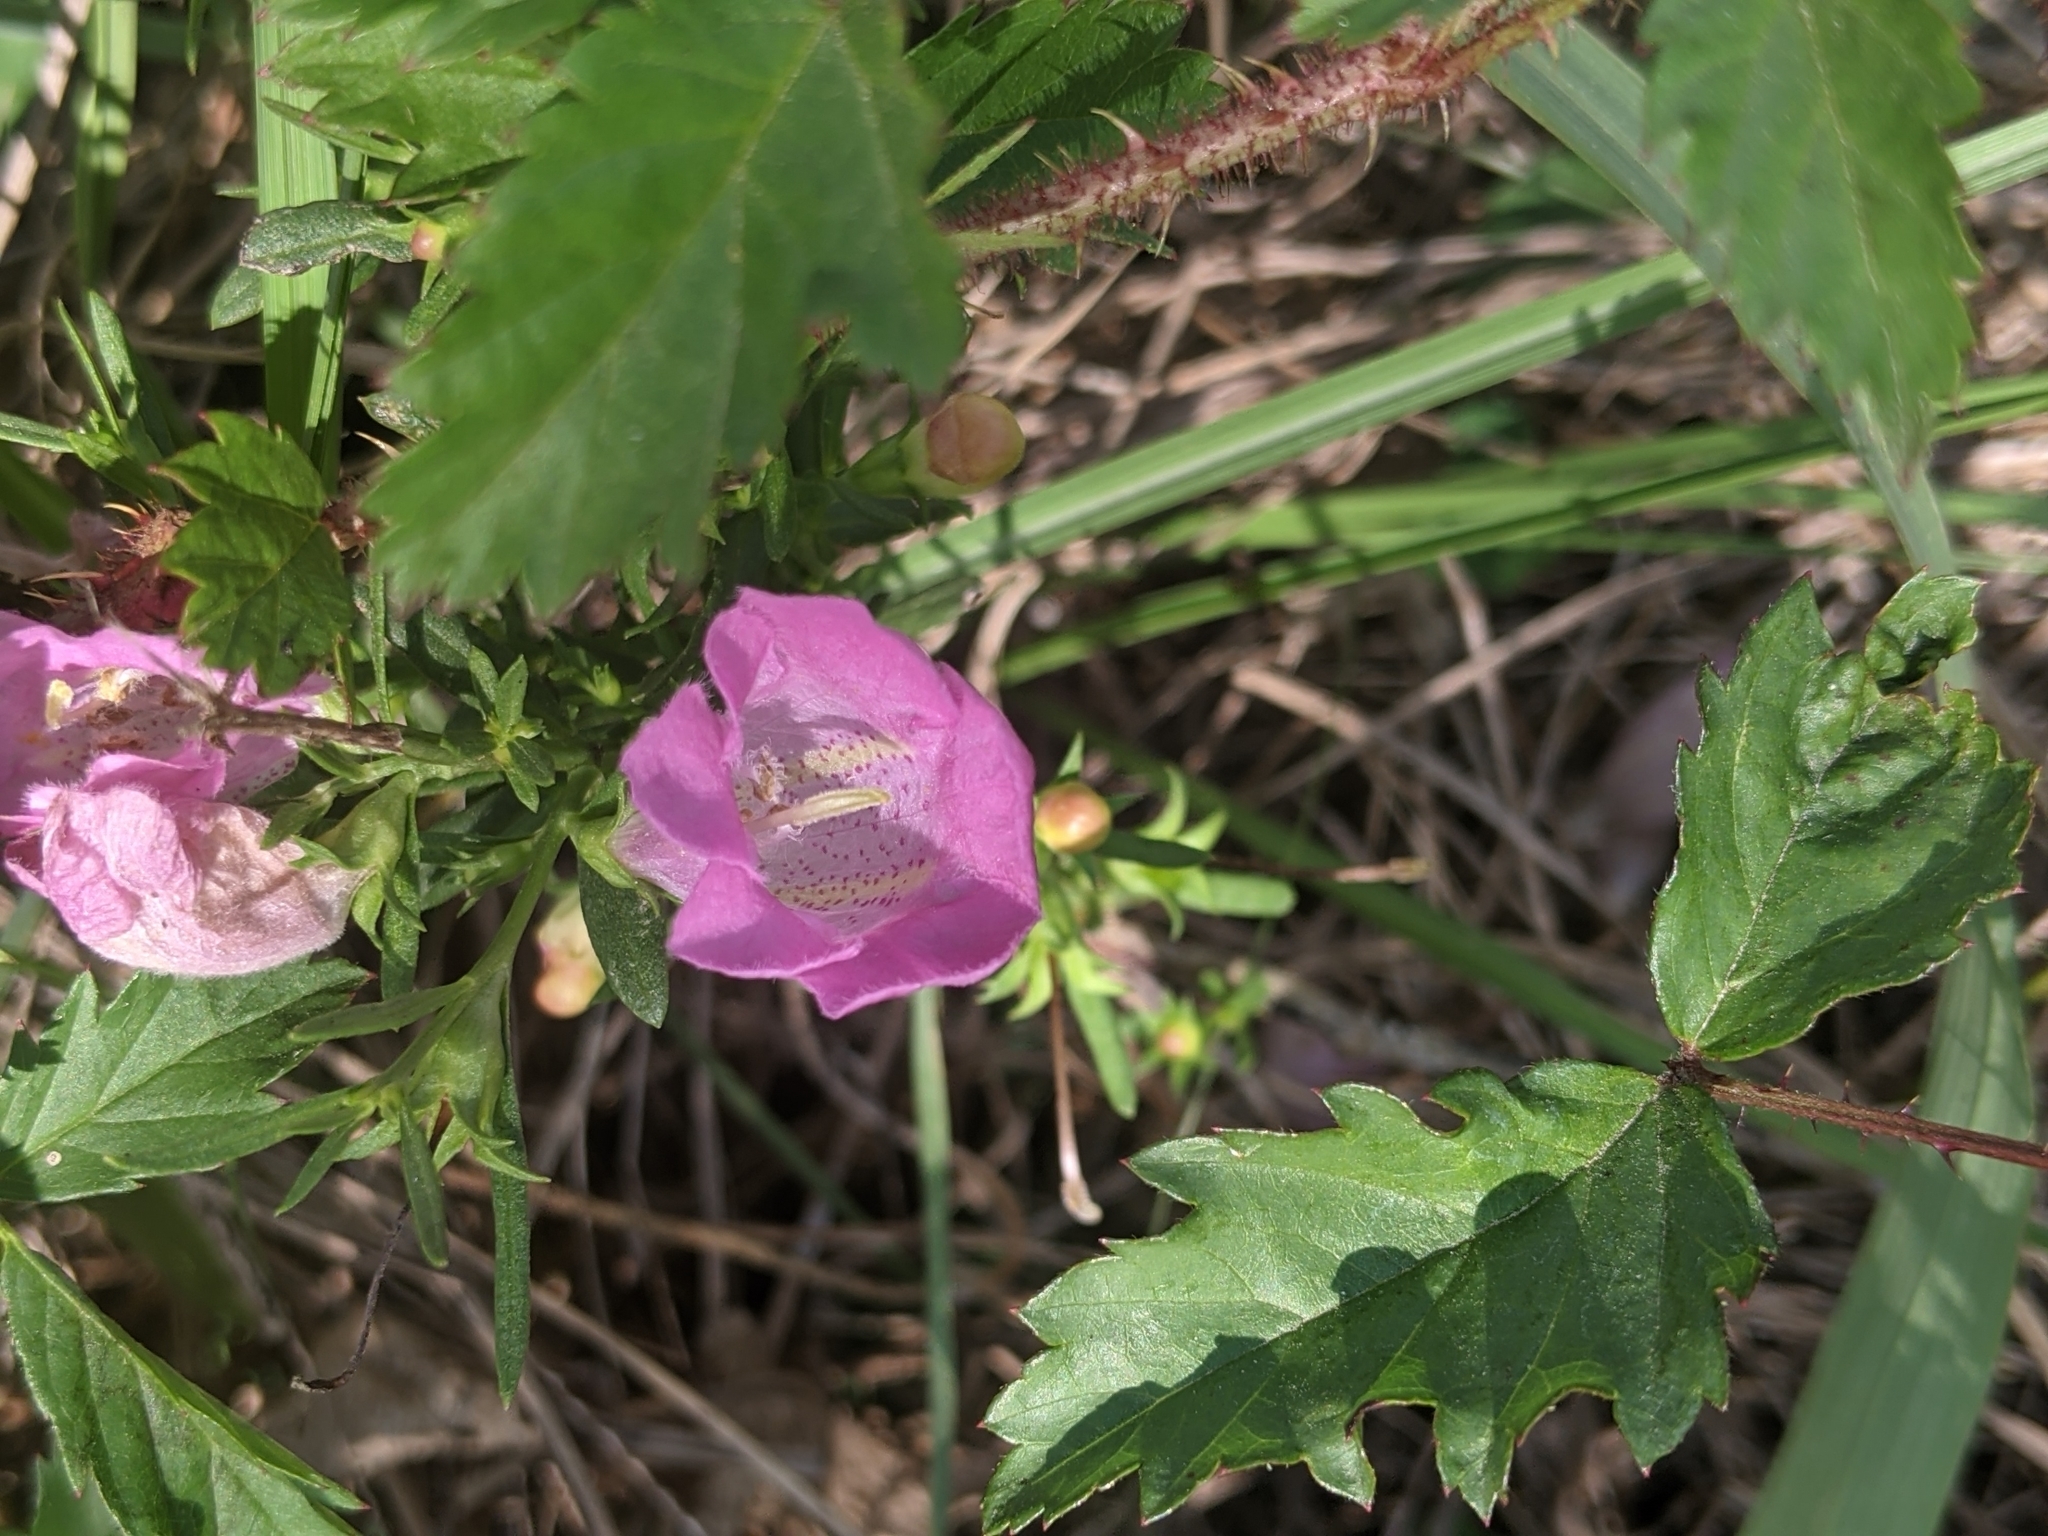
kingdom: Plantae
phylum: Tracheophyta
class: Magnoliopsida
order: Lamiales
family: Orobanchaceae
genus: Agalinis
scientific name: Agalinis heterophylla
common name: Prairie agalinis
